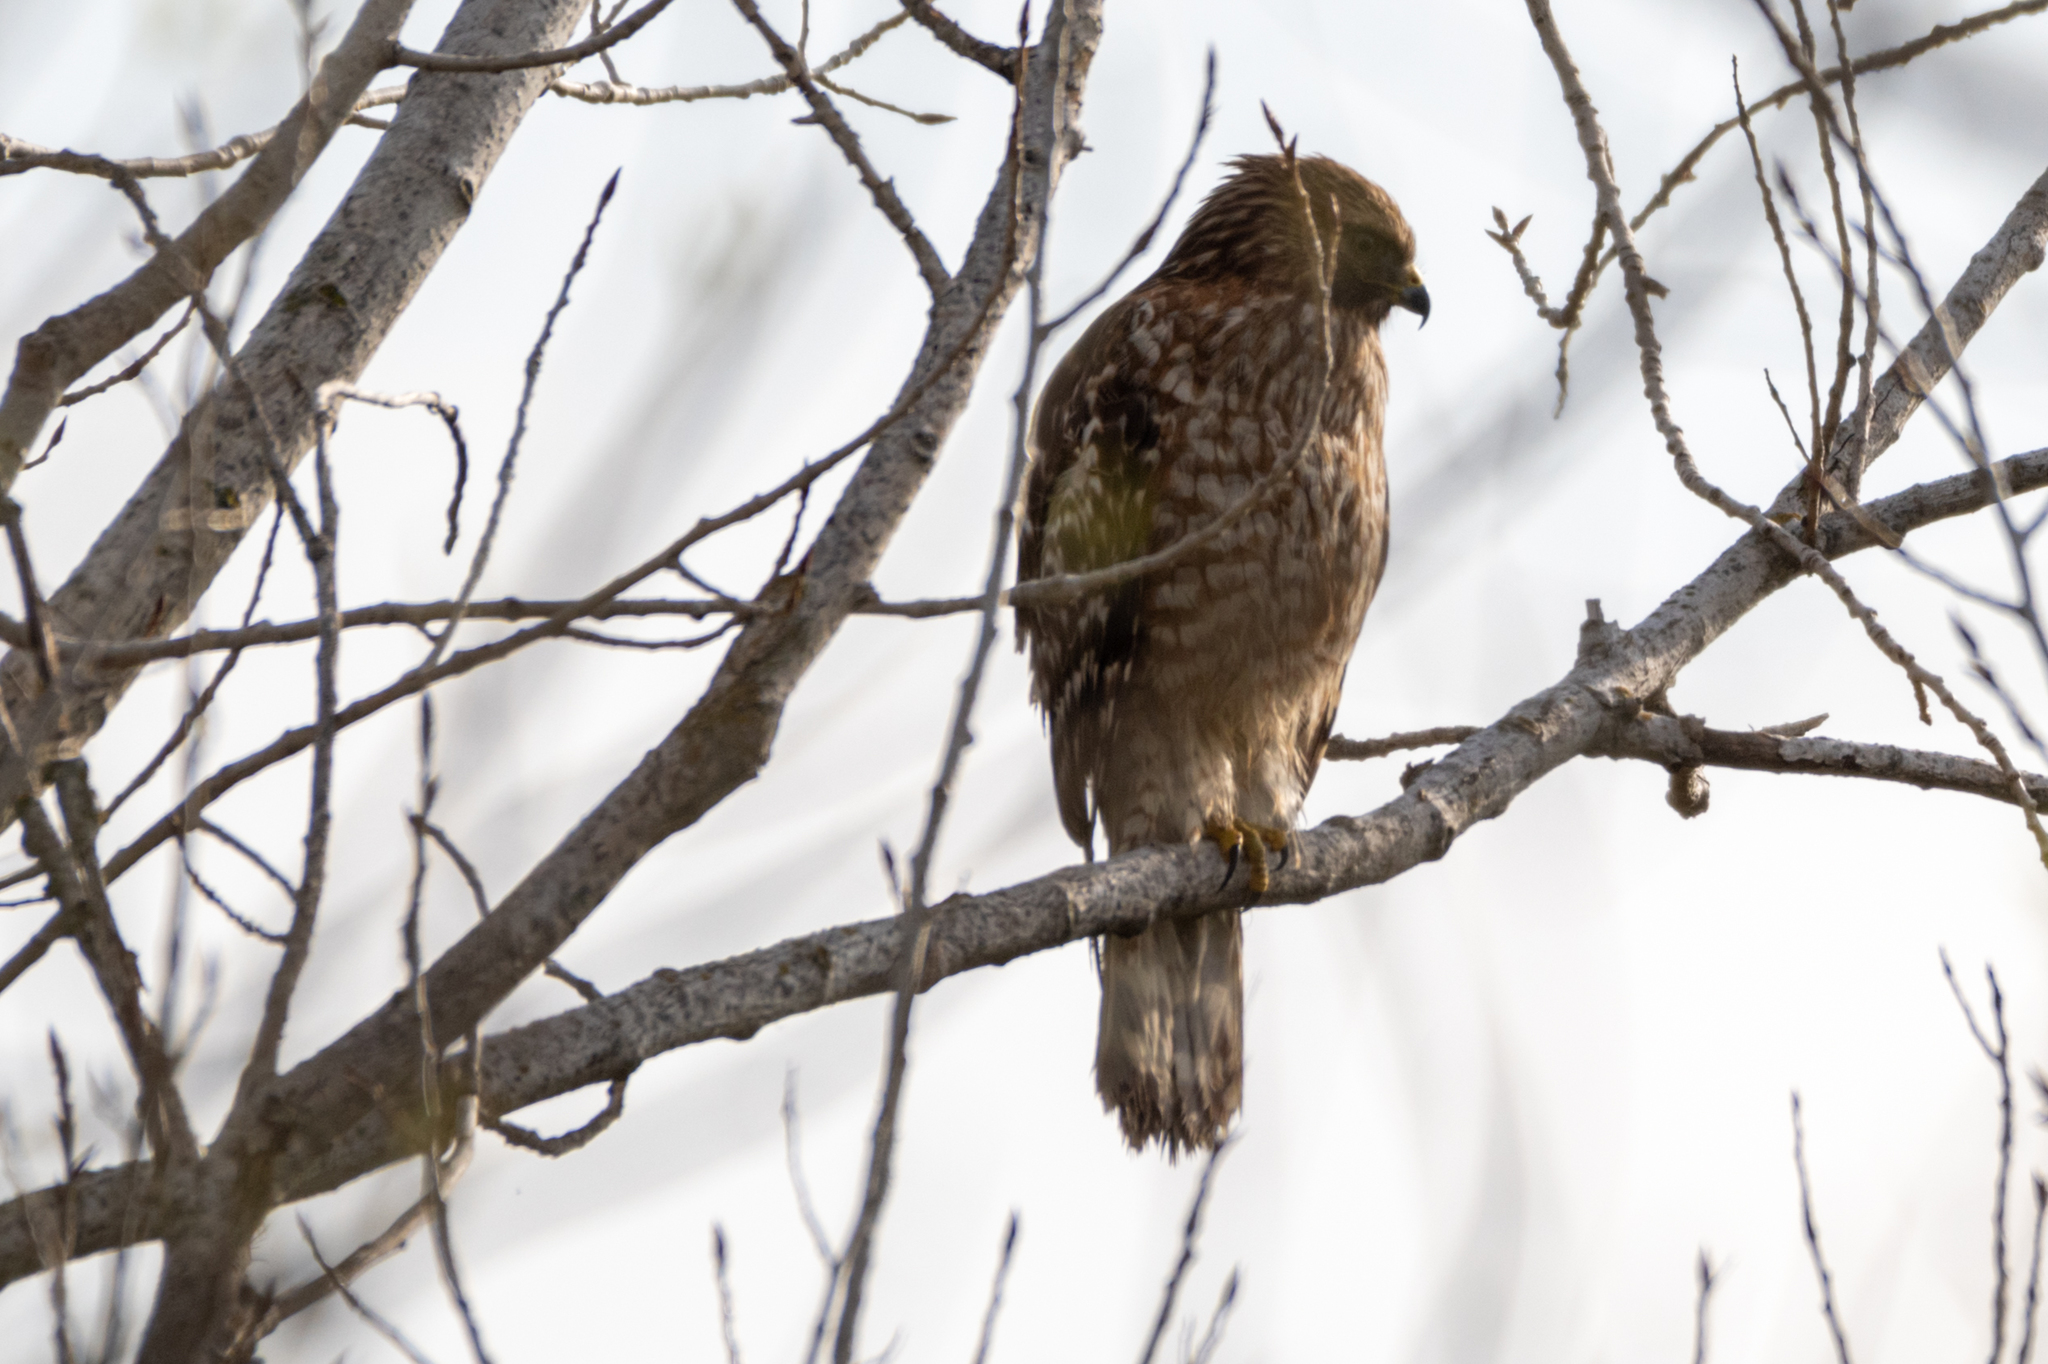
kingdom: Animalia
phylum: Chordata
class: Aves
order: Accipitriformes
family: Accipitridae
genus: Buteo
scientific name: Buteo lineatus
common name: Red-shouldered hawk
